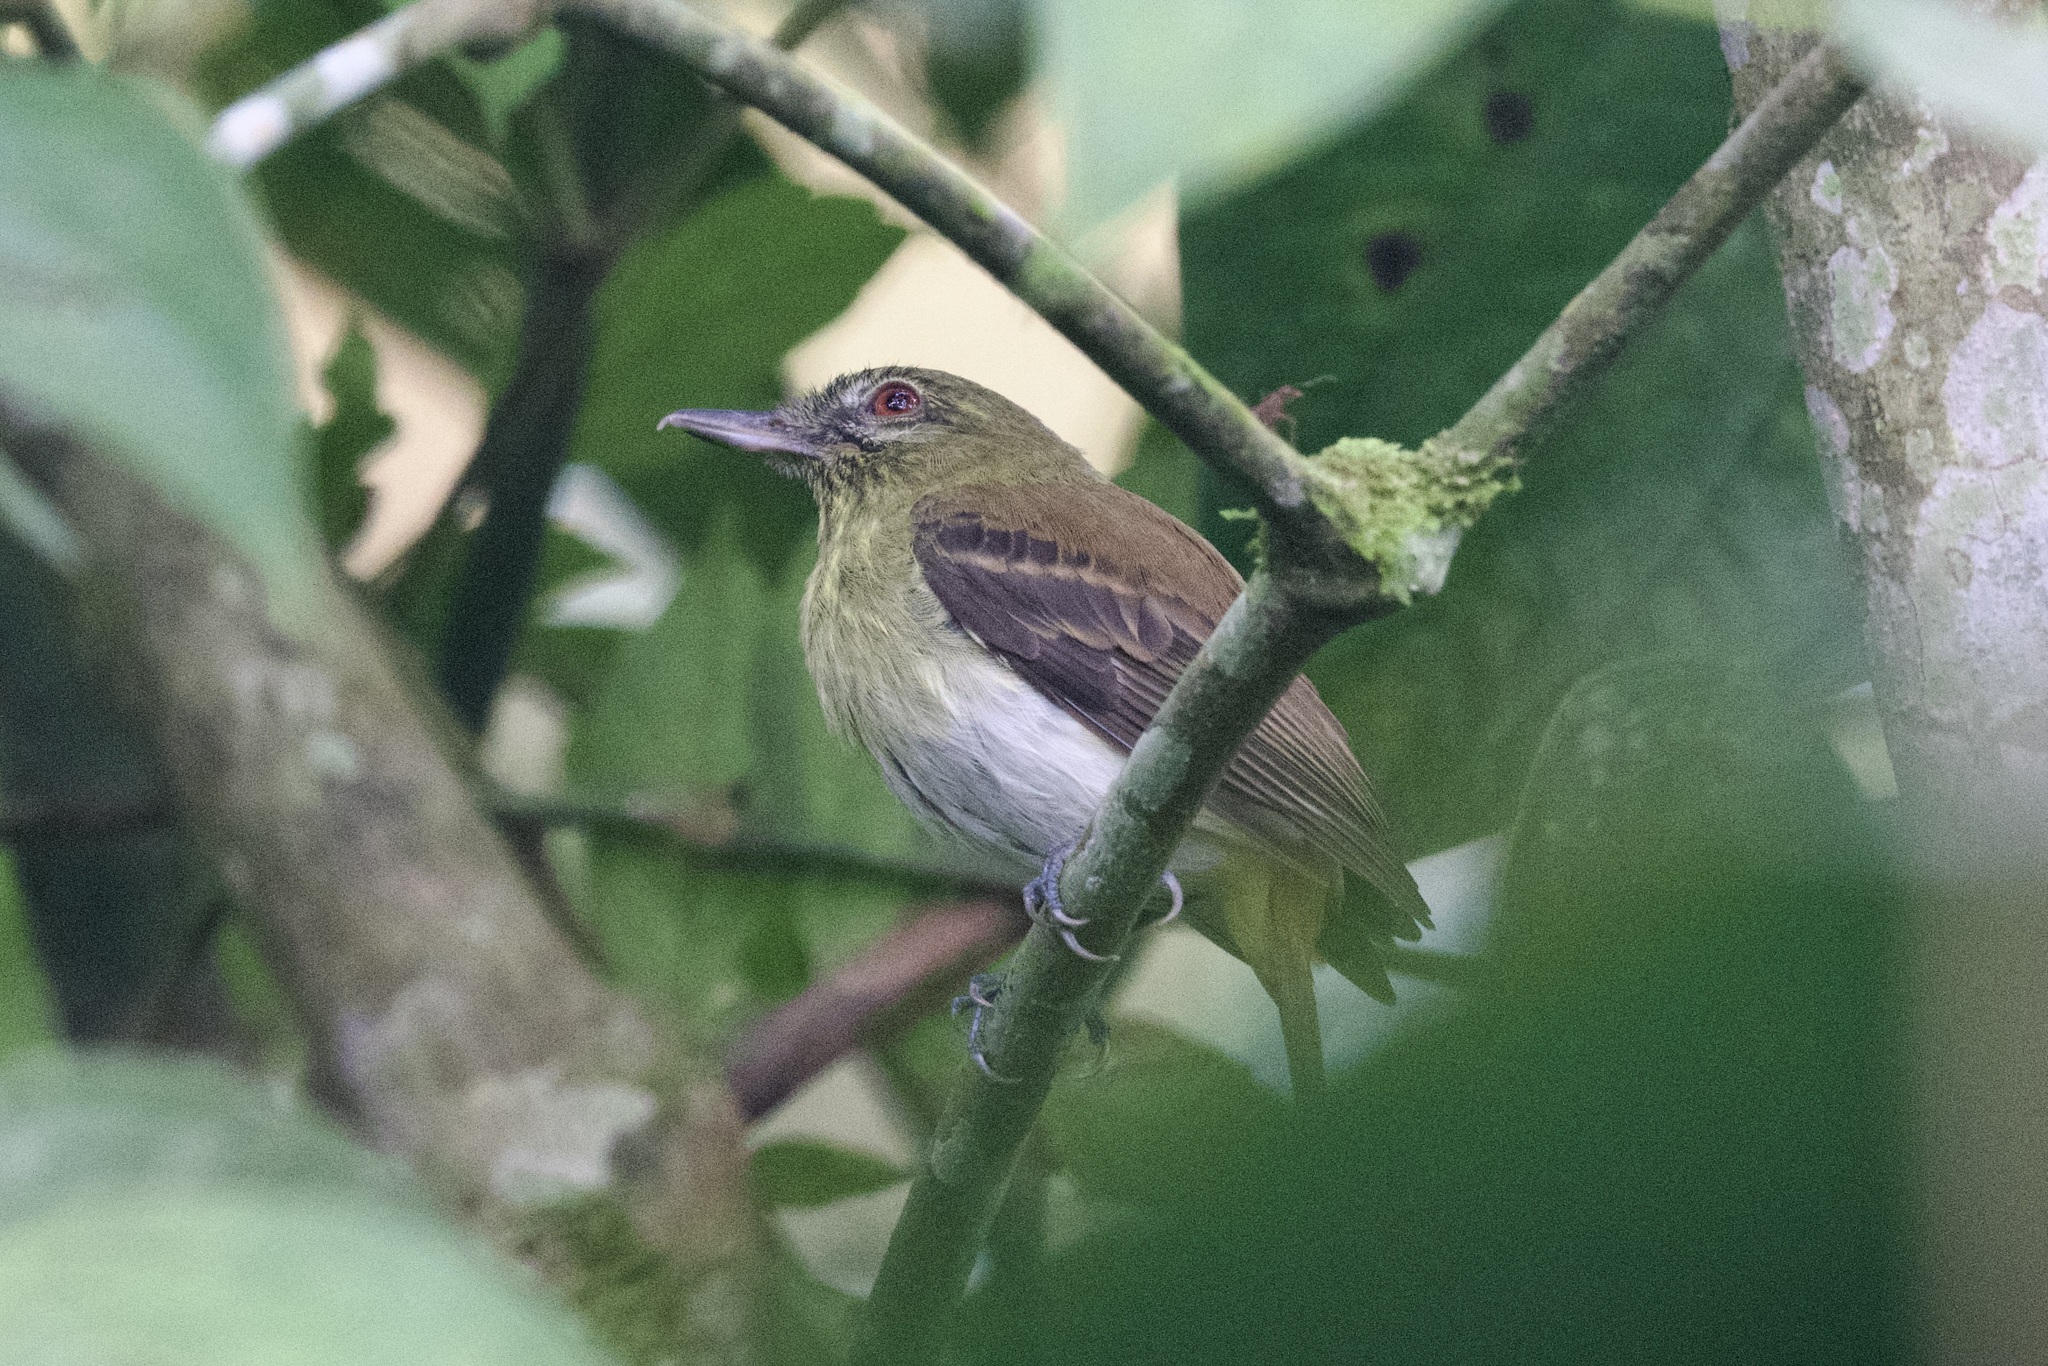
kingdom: Animalia
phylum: Chordata
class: Aves
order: Passeriformes
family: Tyrannidae
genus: Attila
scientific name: Attila spadiceus
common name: Bright-rumped attila
